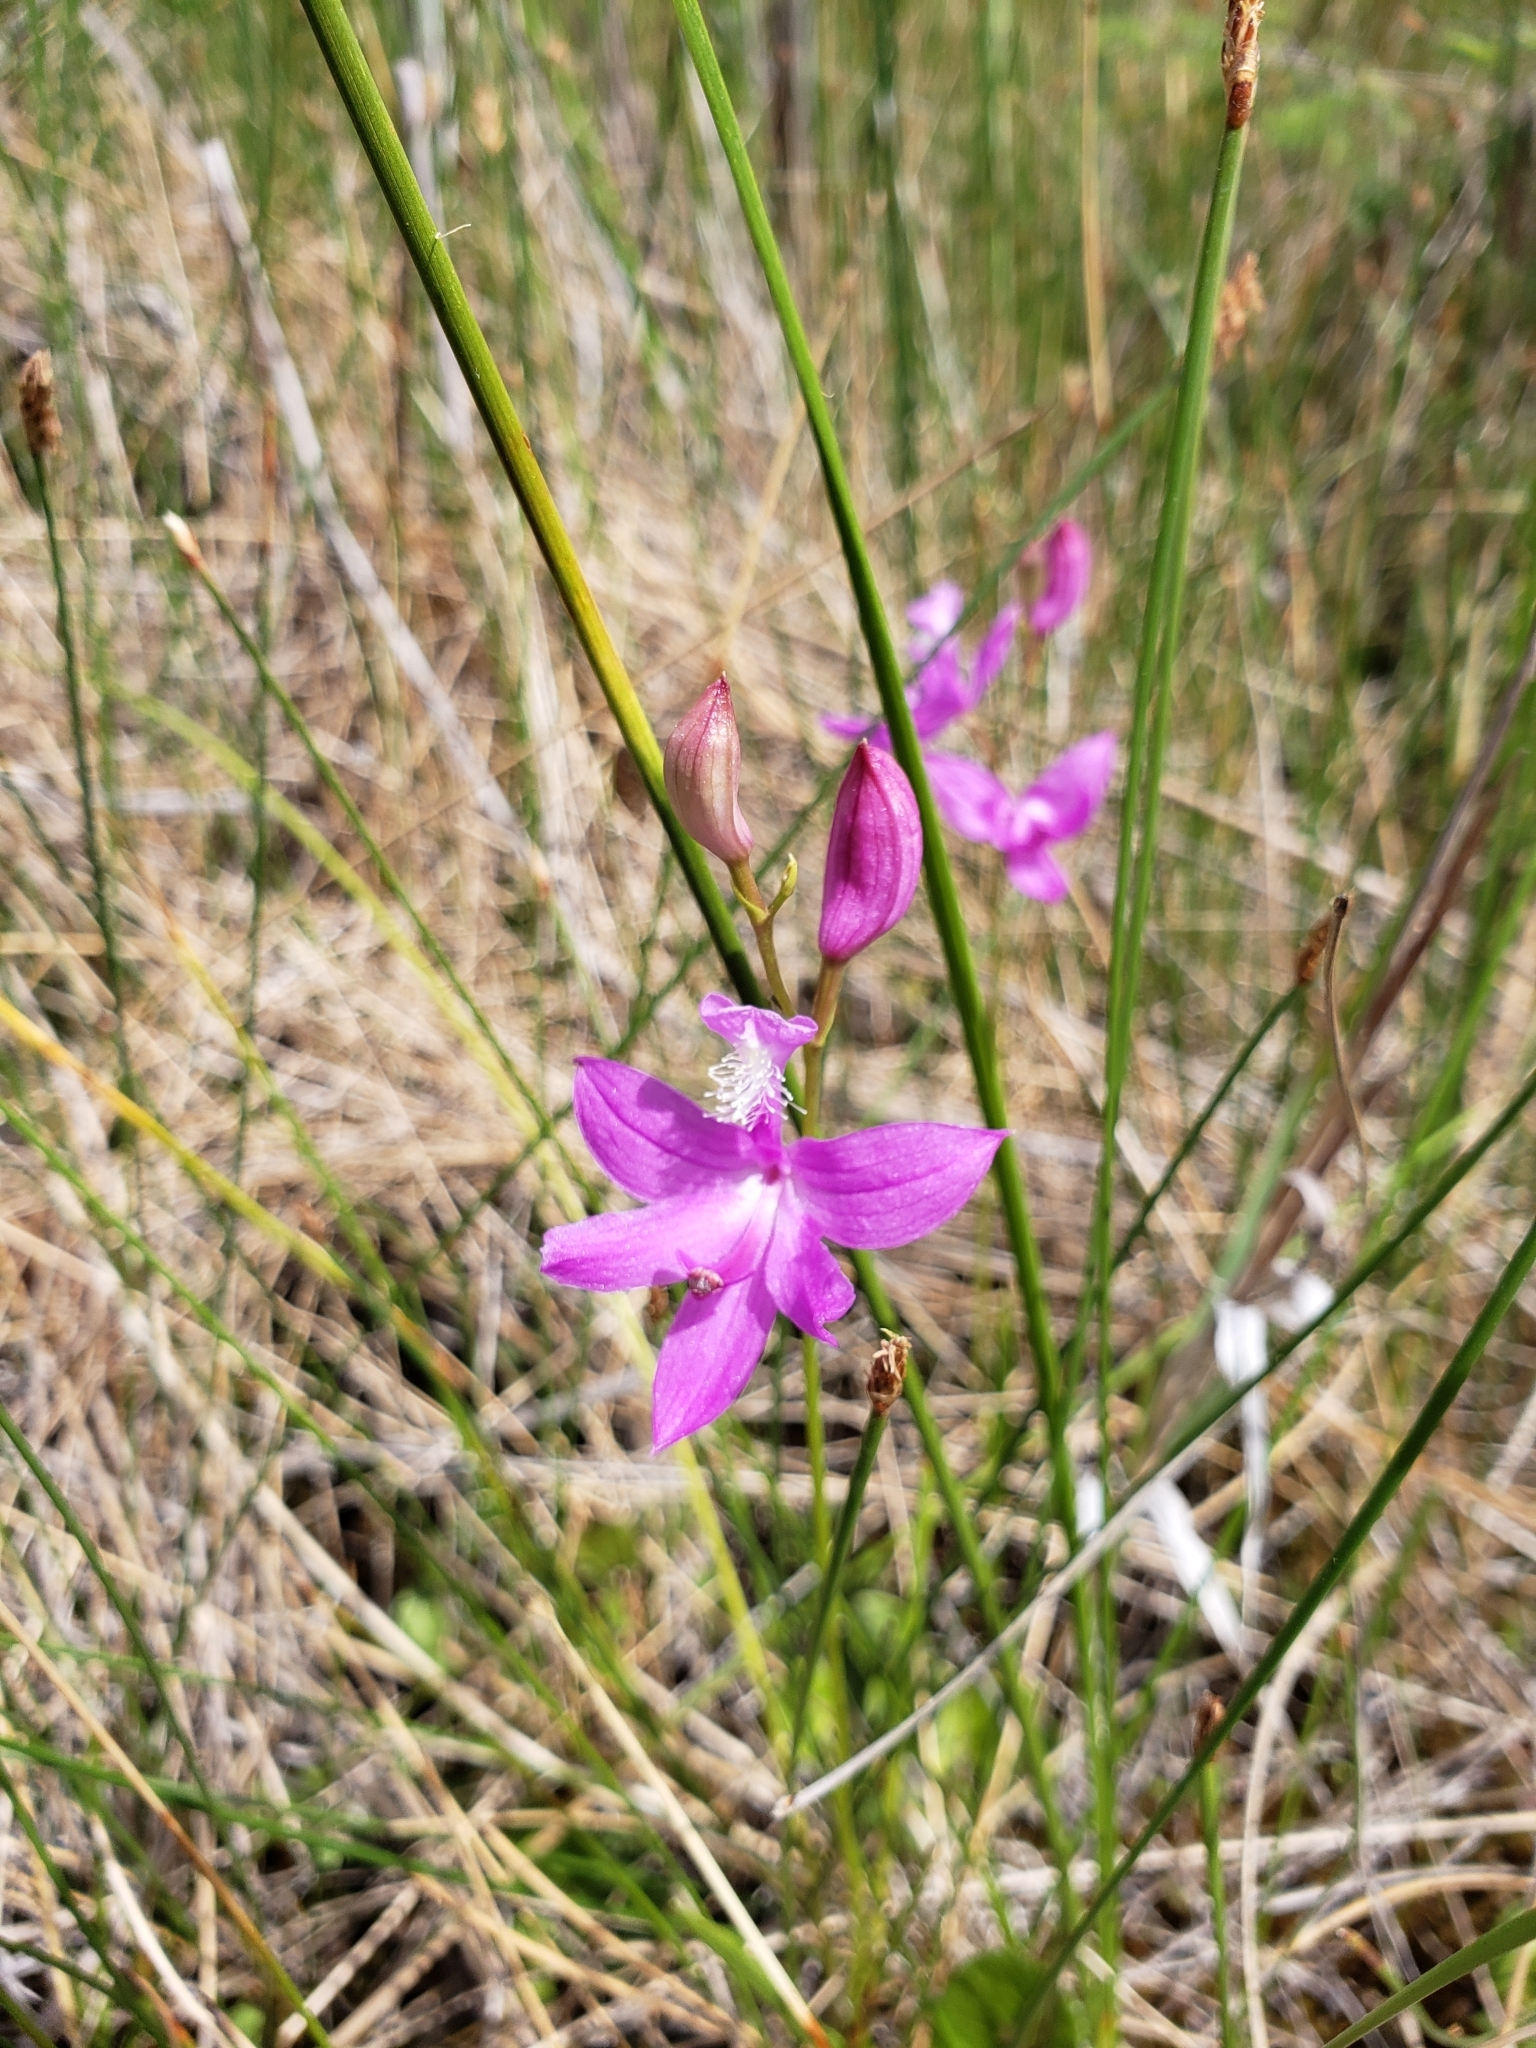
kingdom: Plantae
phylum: Tracheophyta
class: Liliopsida
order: Asparagales
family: Orchidaceae
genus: Calopogon
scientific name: Calopogon tuberosus
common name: Grass-pink
